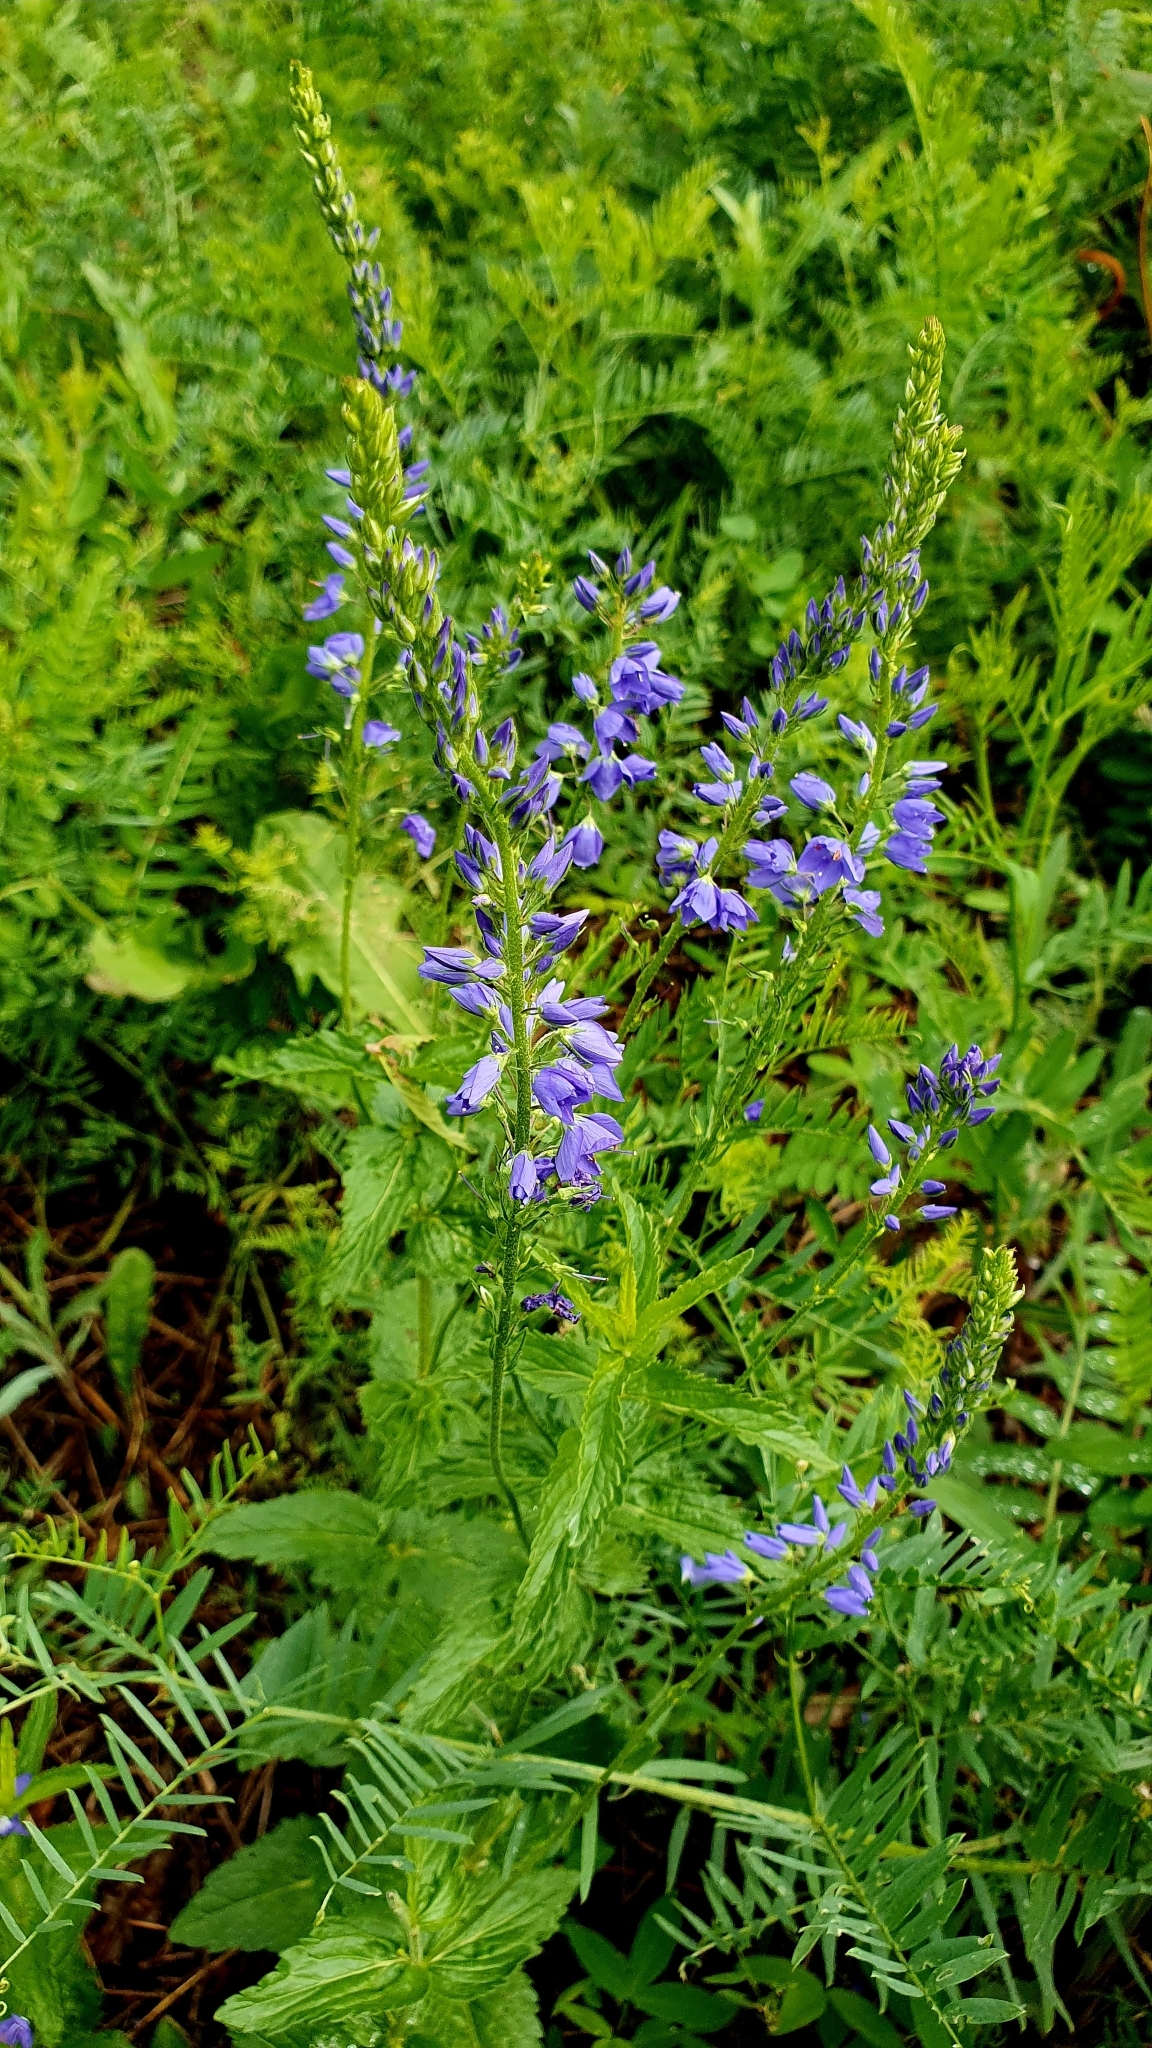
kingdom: Plantae
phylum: Tracheophyta
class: Magnoliopsida
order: Lamiales
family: Plantaginaceae
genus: Veronica
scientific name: Veronica teucrium
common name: Large speedwell
